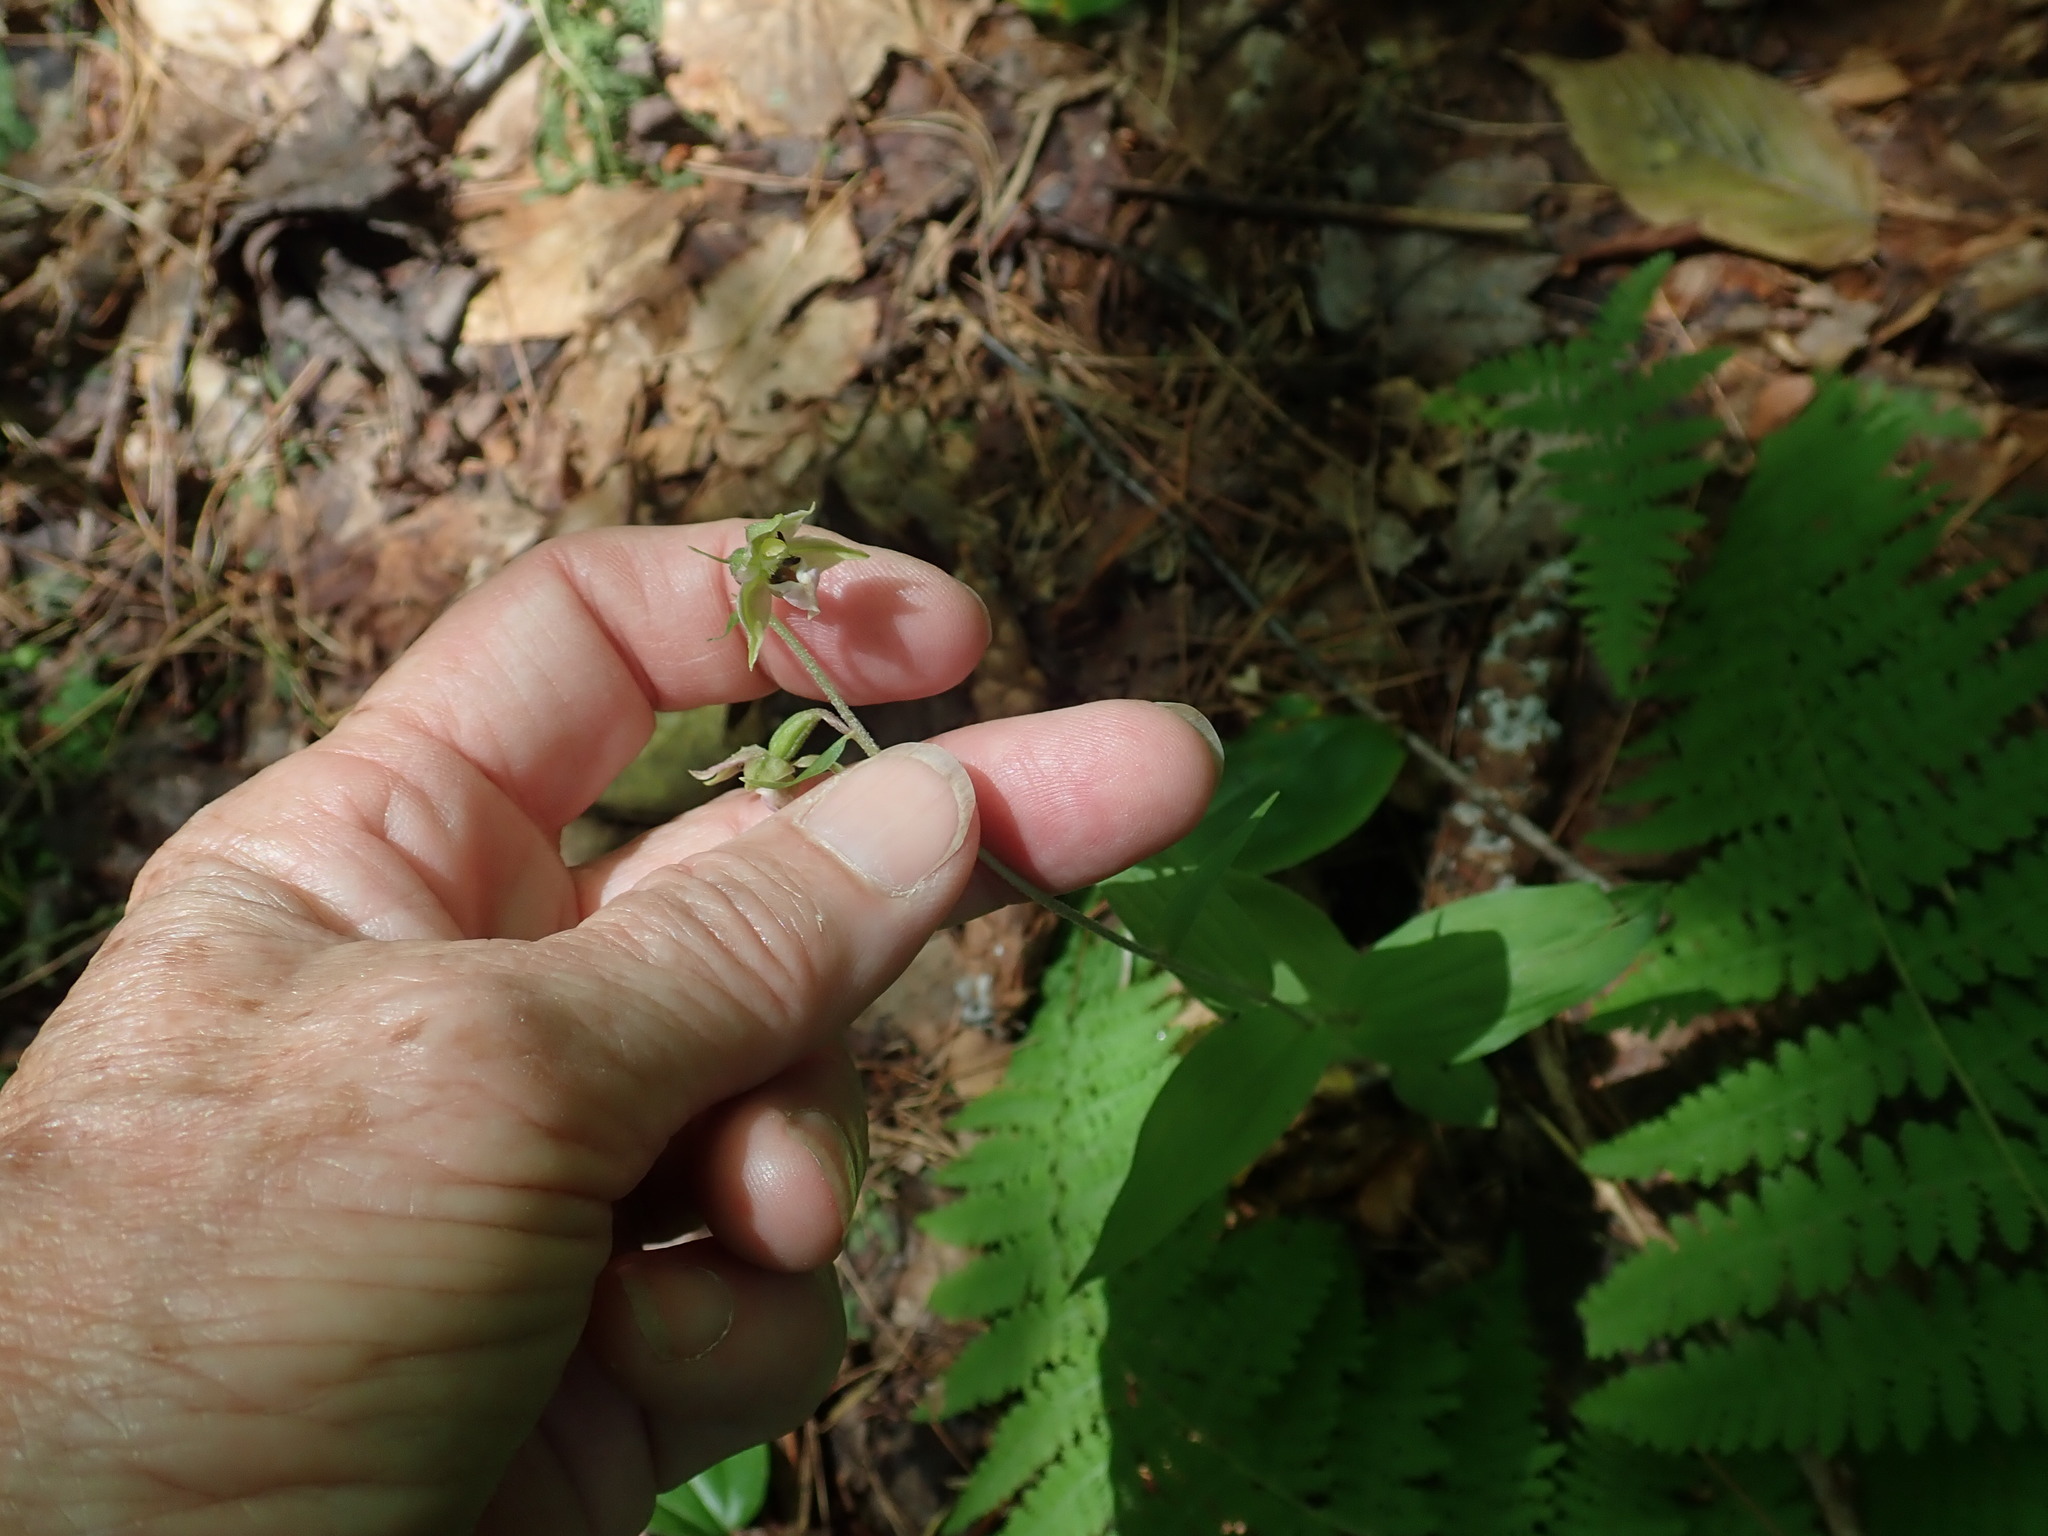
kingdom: Plantae
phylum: Tracheophyta
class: Liliopsida
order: Asparagales
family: Orchidaceae
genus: Epipactis
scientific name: Epipactis helleborine
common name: Broad-leaved helleborine
